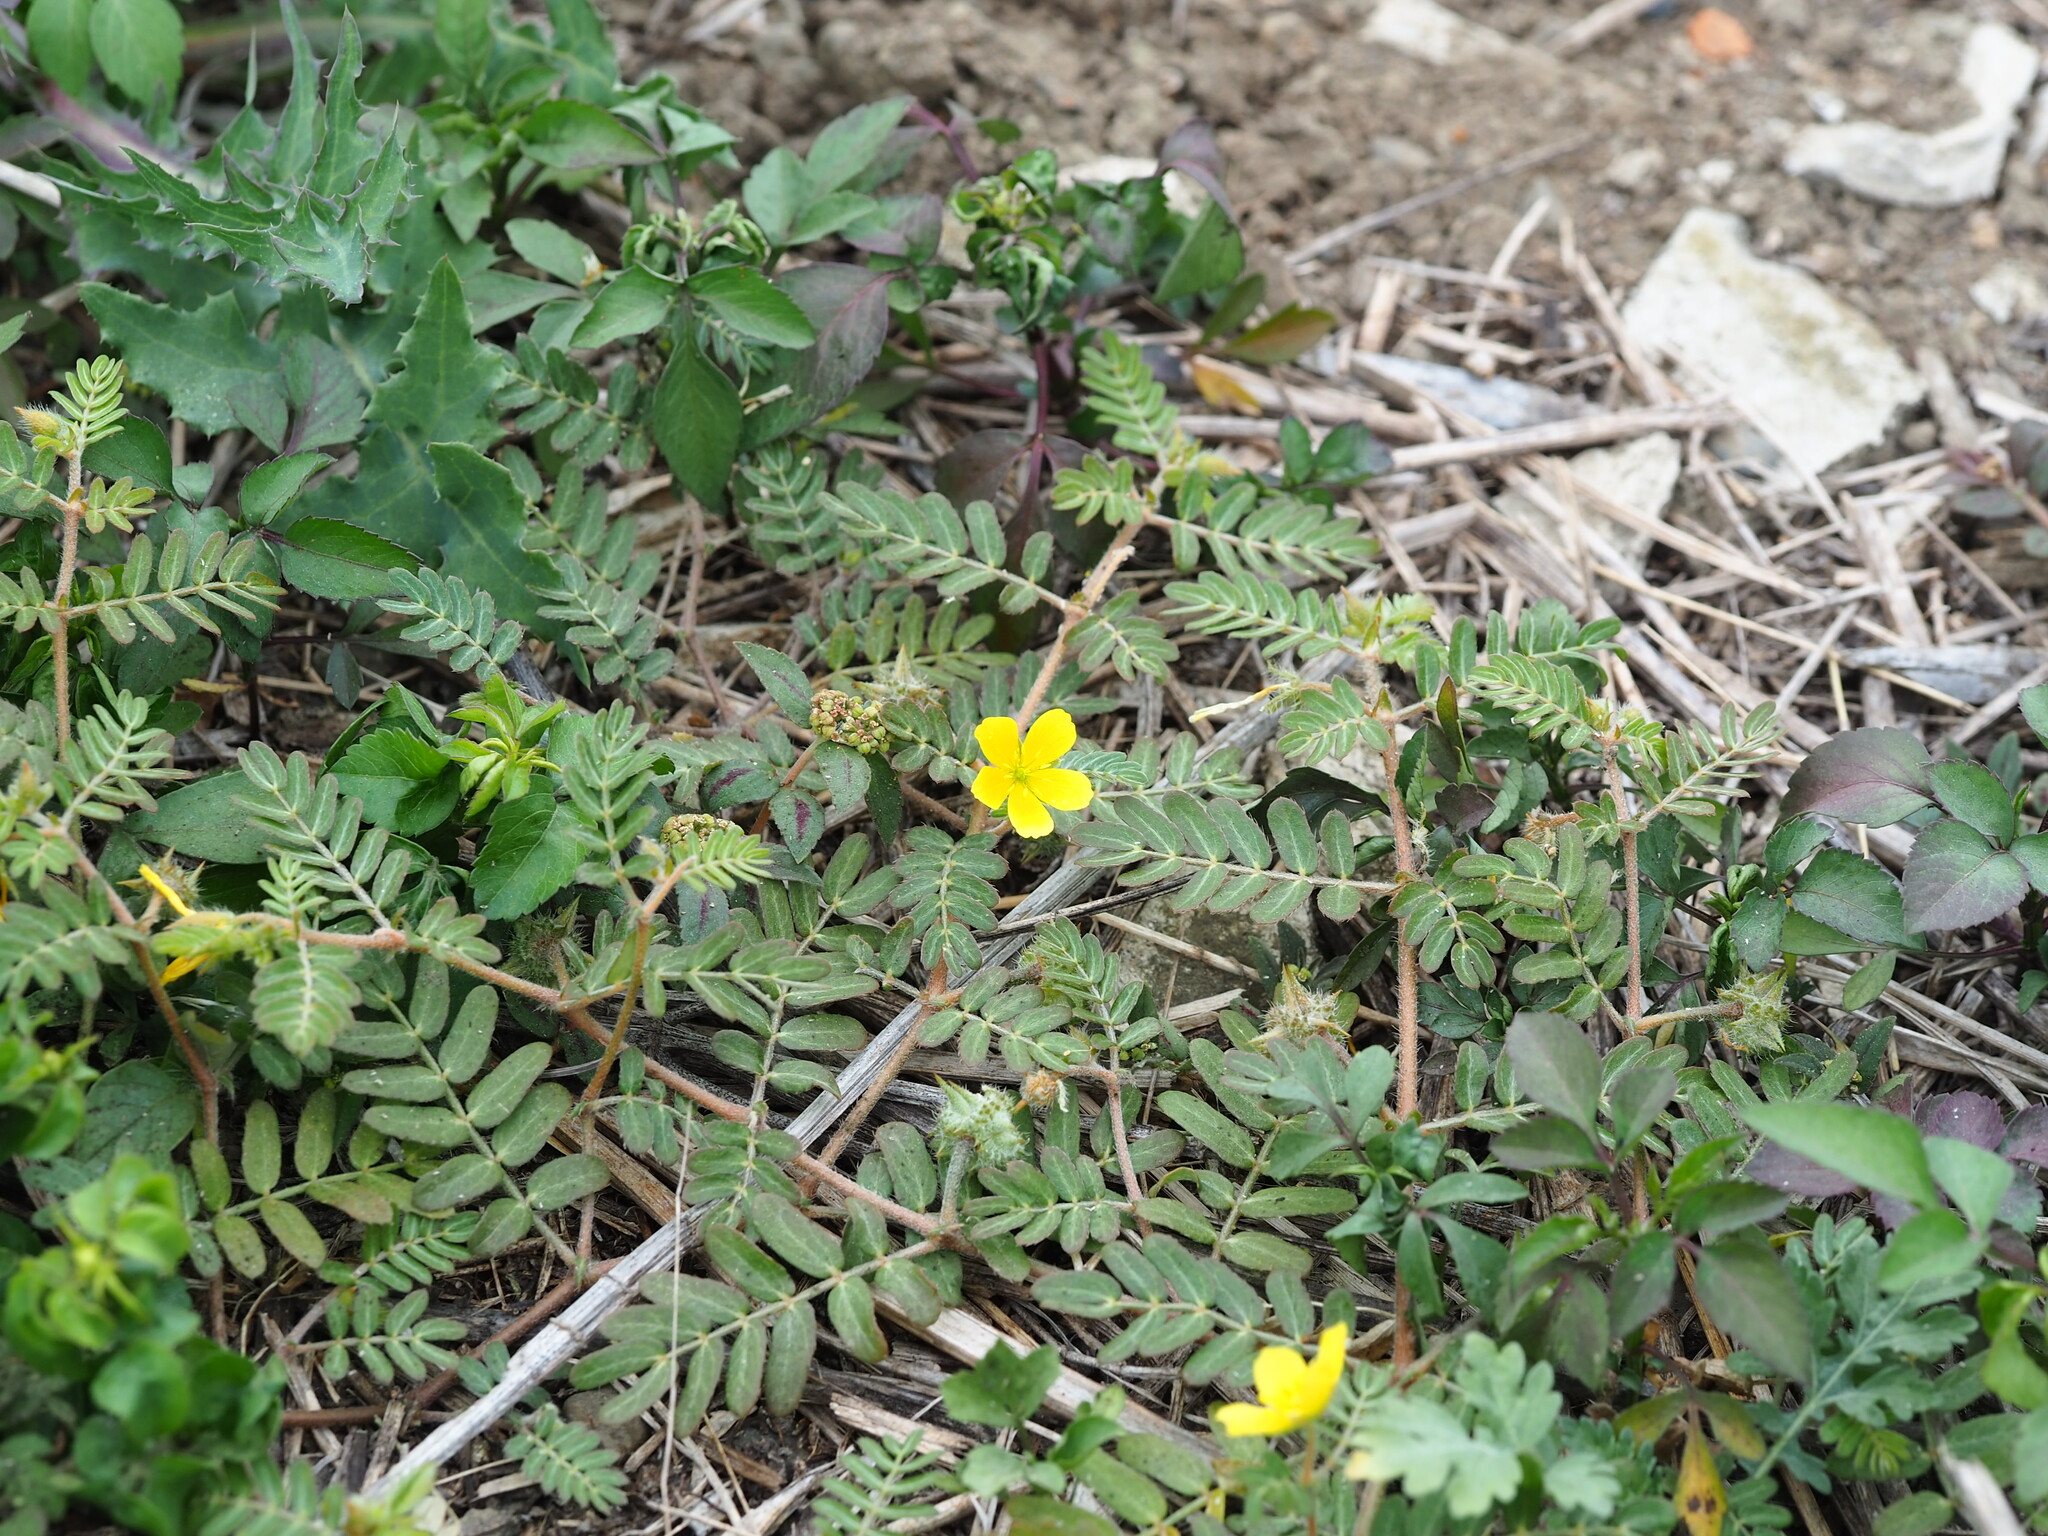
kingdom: Plantae
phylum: Tracheophyta
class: Magnoliopsida
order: Zygophyllales
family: Zygophyllaceae
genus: Tribulus
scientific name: Tribulus cistoides
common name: Jamaican feverplant
